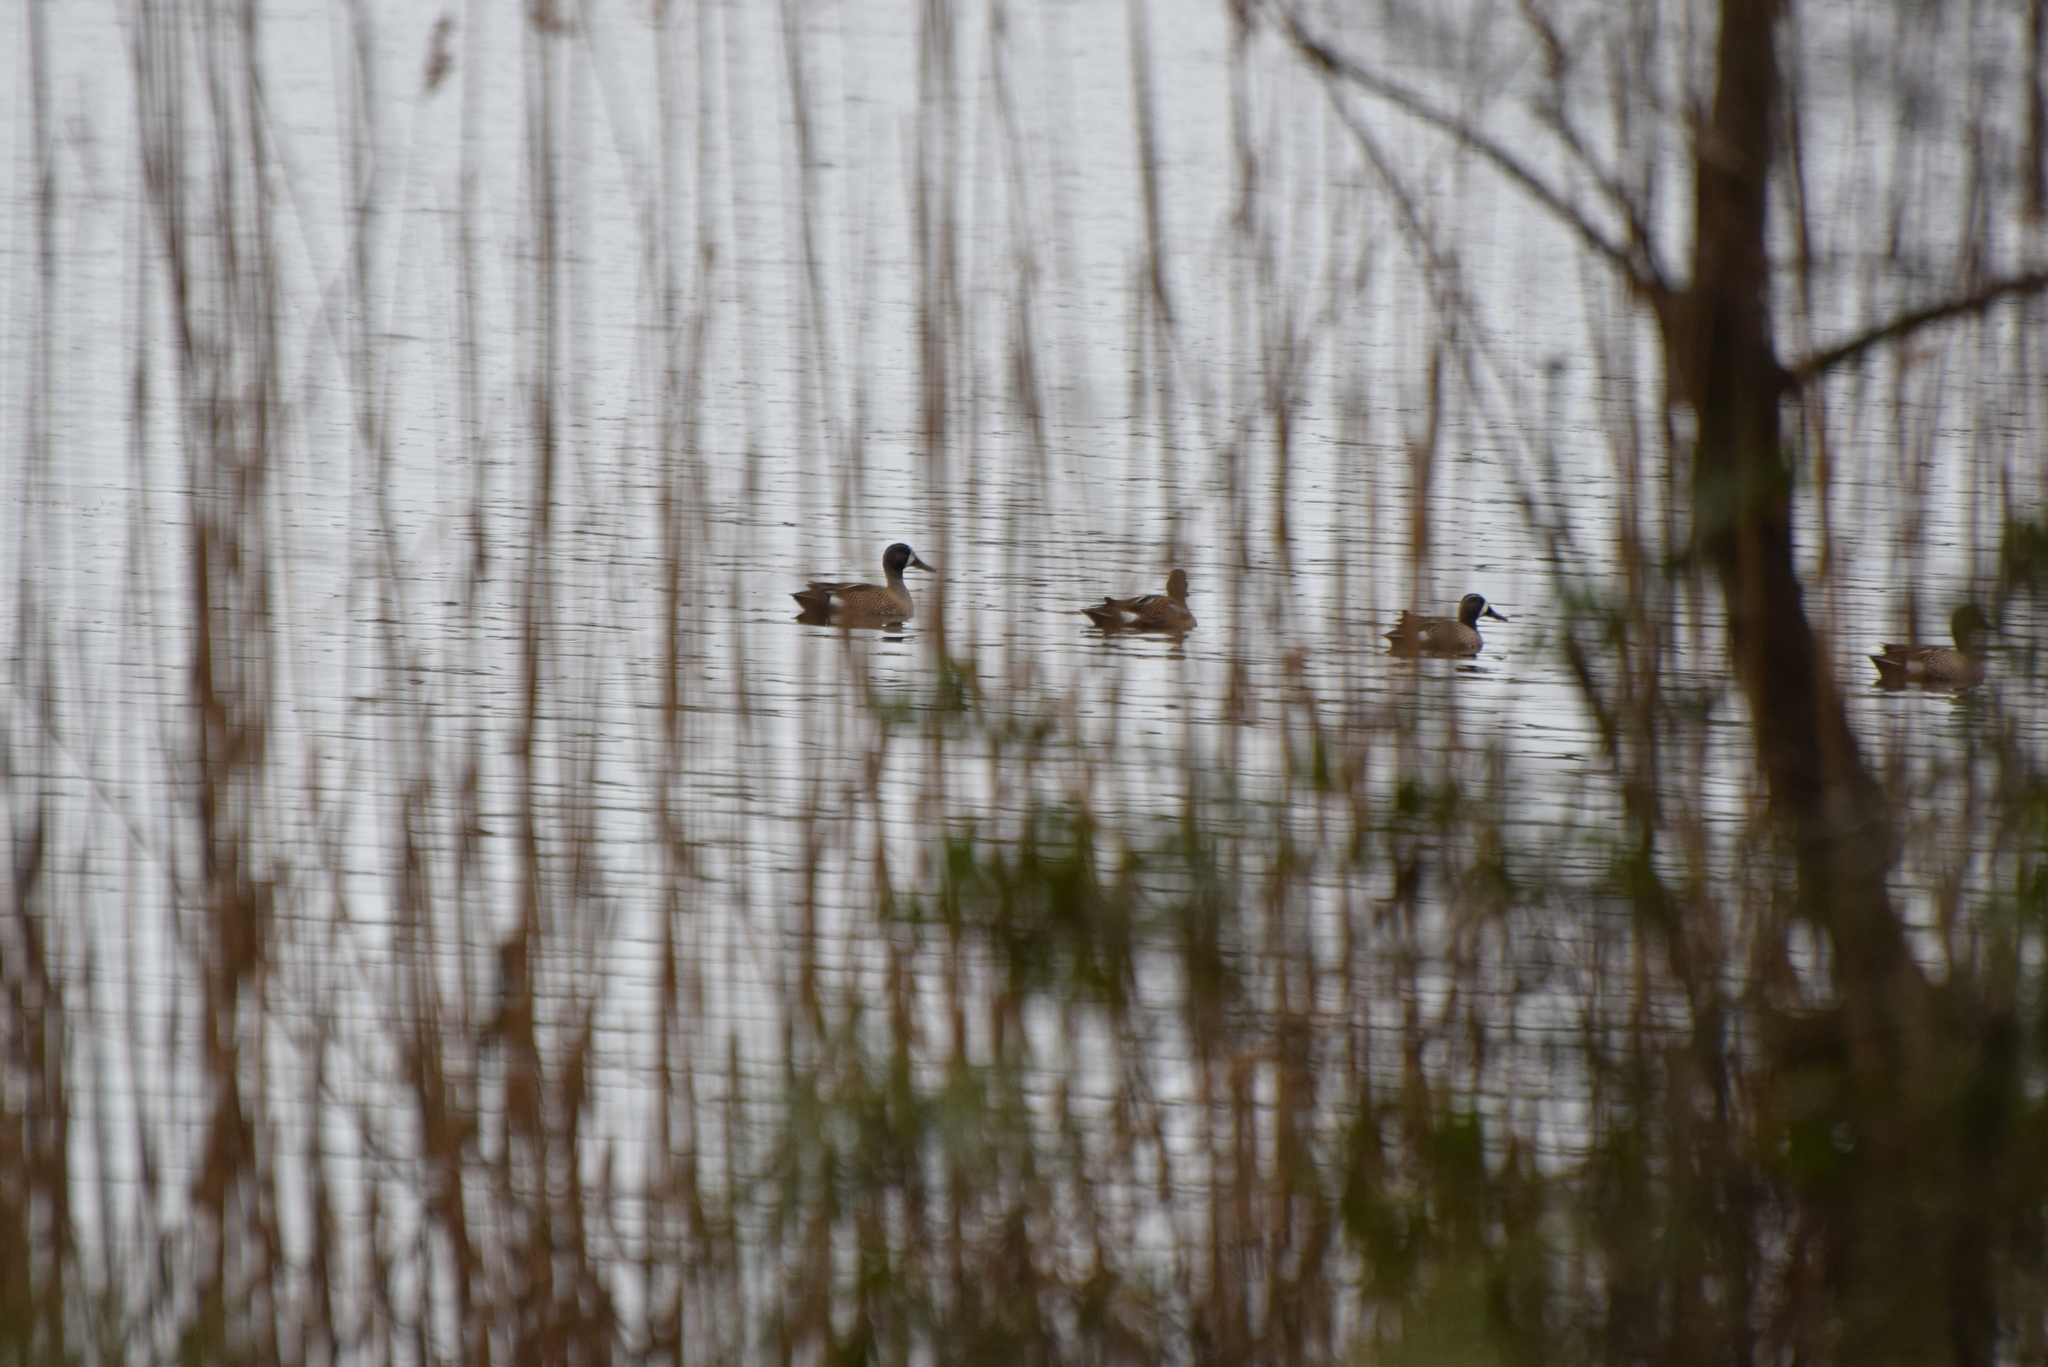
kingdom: Animalia
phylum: Chordata
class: Aves
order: Anseriformes
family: Anatidae
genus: Spatula
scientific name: Spatula discors
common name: Blue-winged teal
